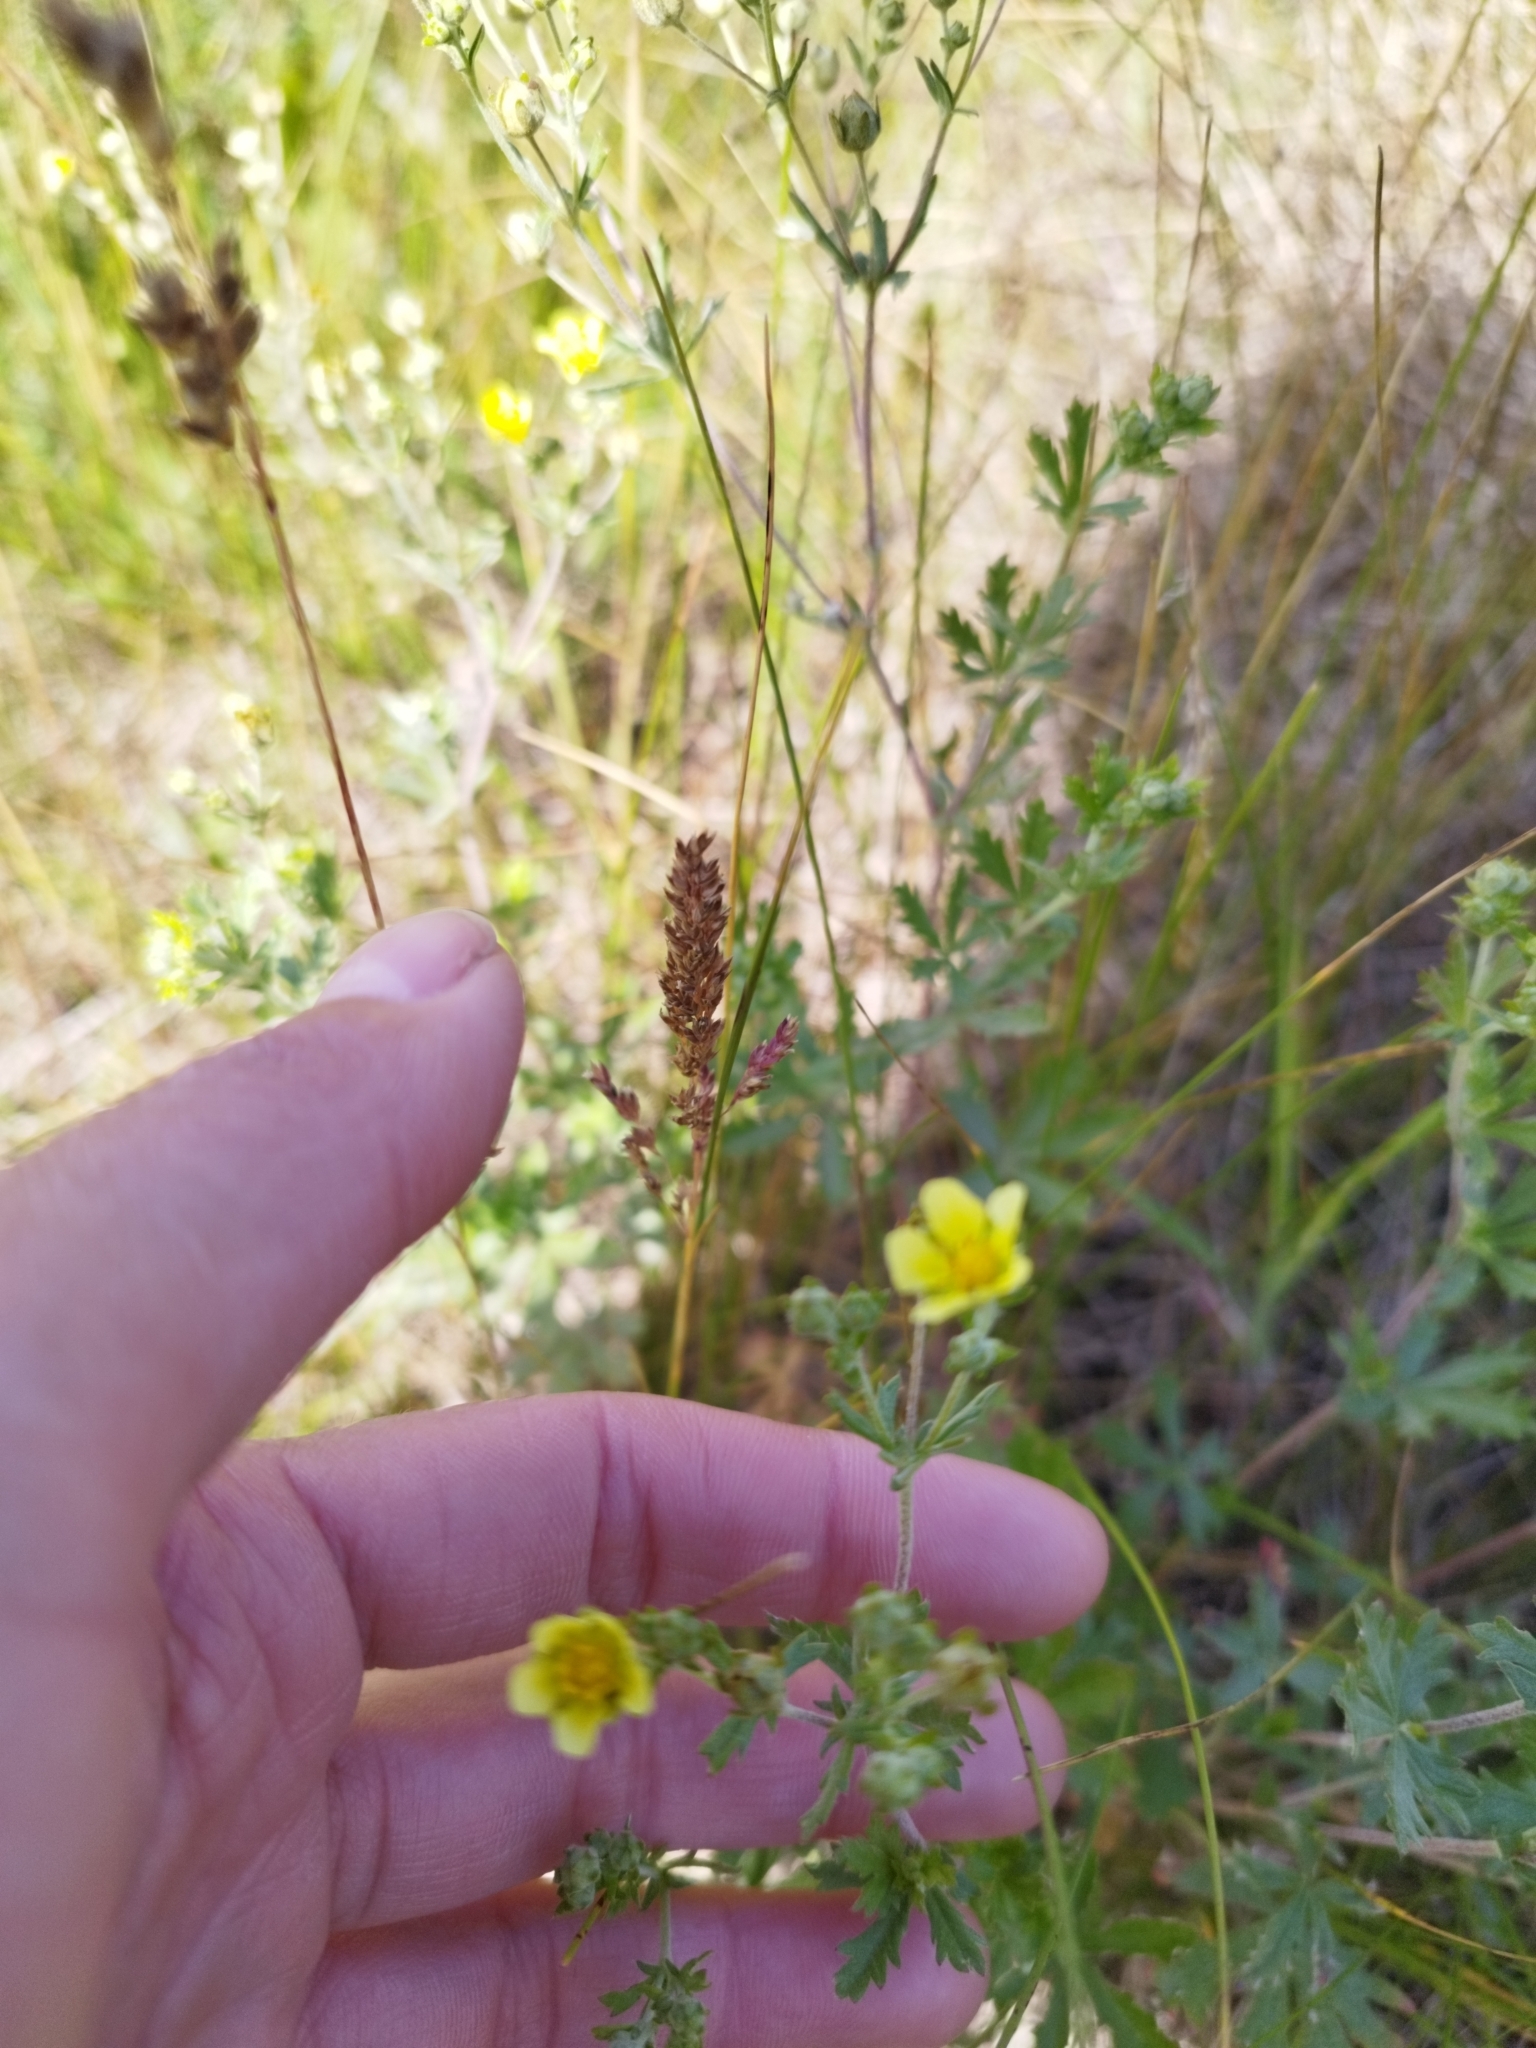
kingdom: Plantae
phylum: Tracheophyta
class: Magnoliopsida
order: Rosales
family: Rosaceae
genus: Potentilla
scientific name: Potentilla argentea
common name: Hoary cinquefoil
